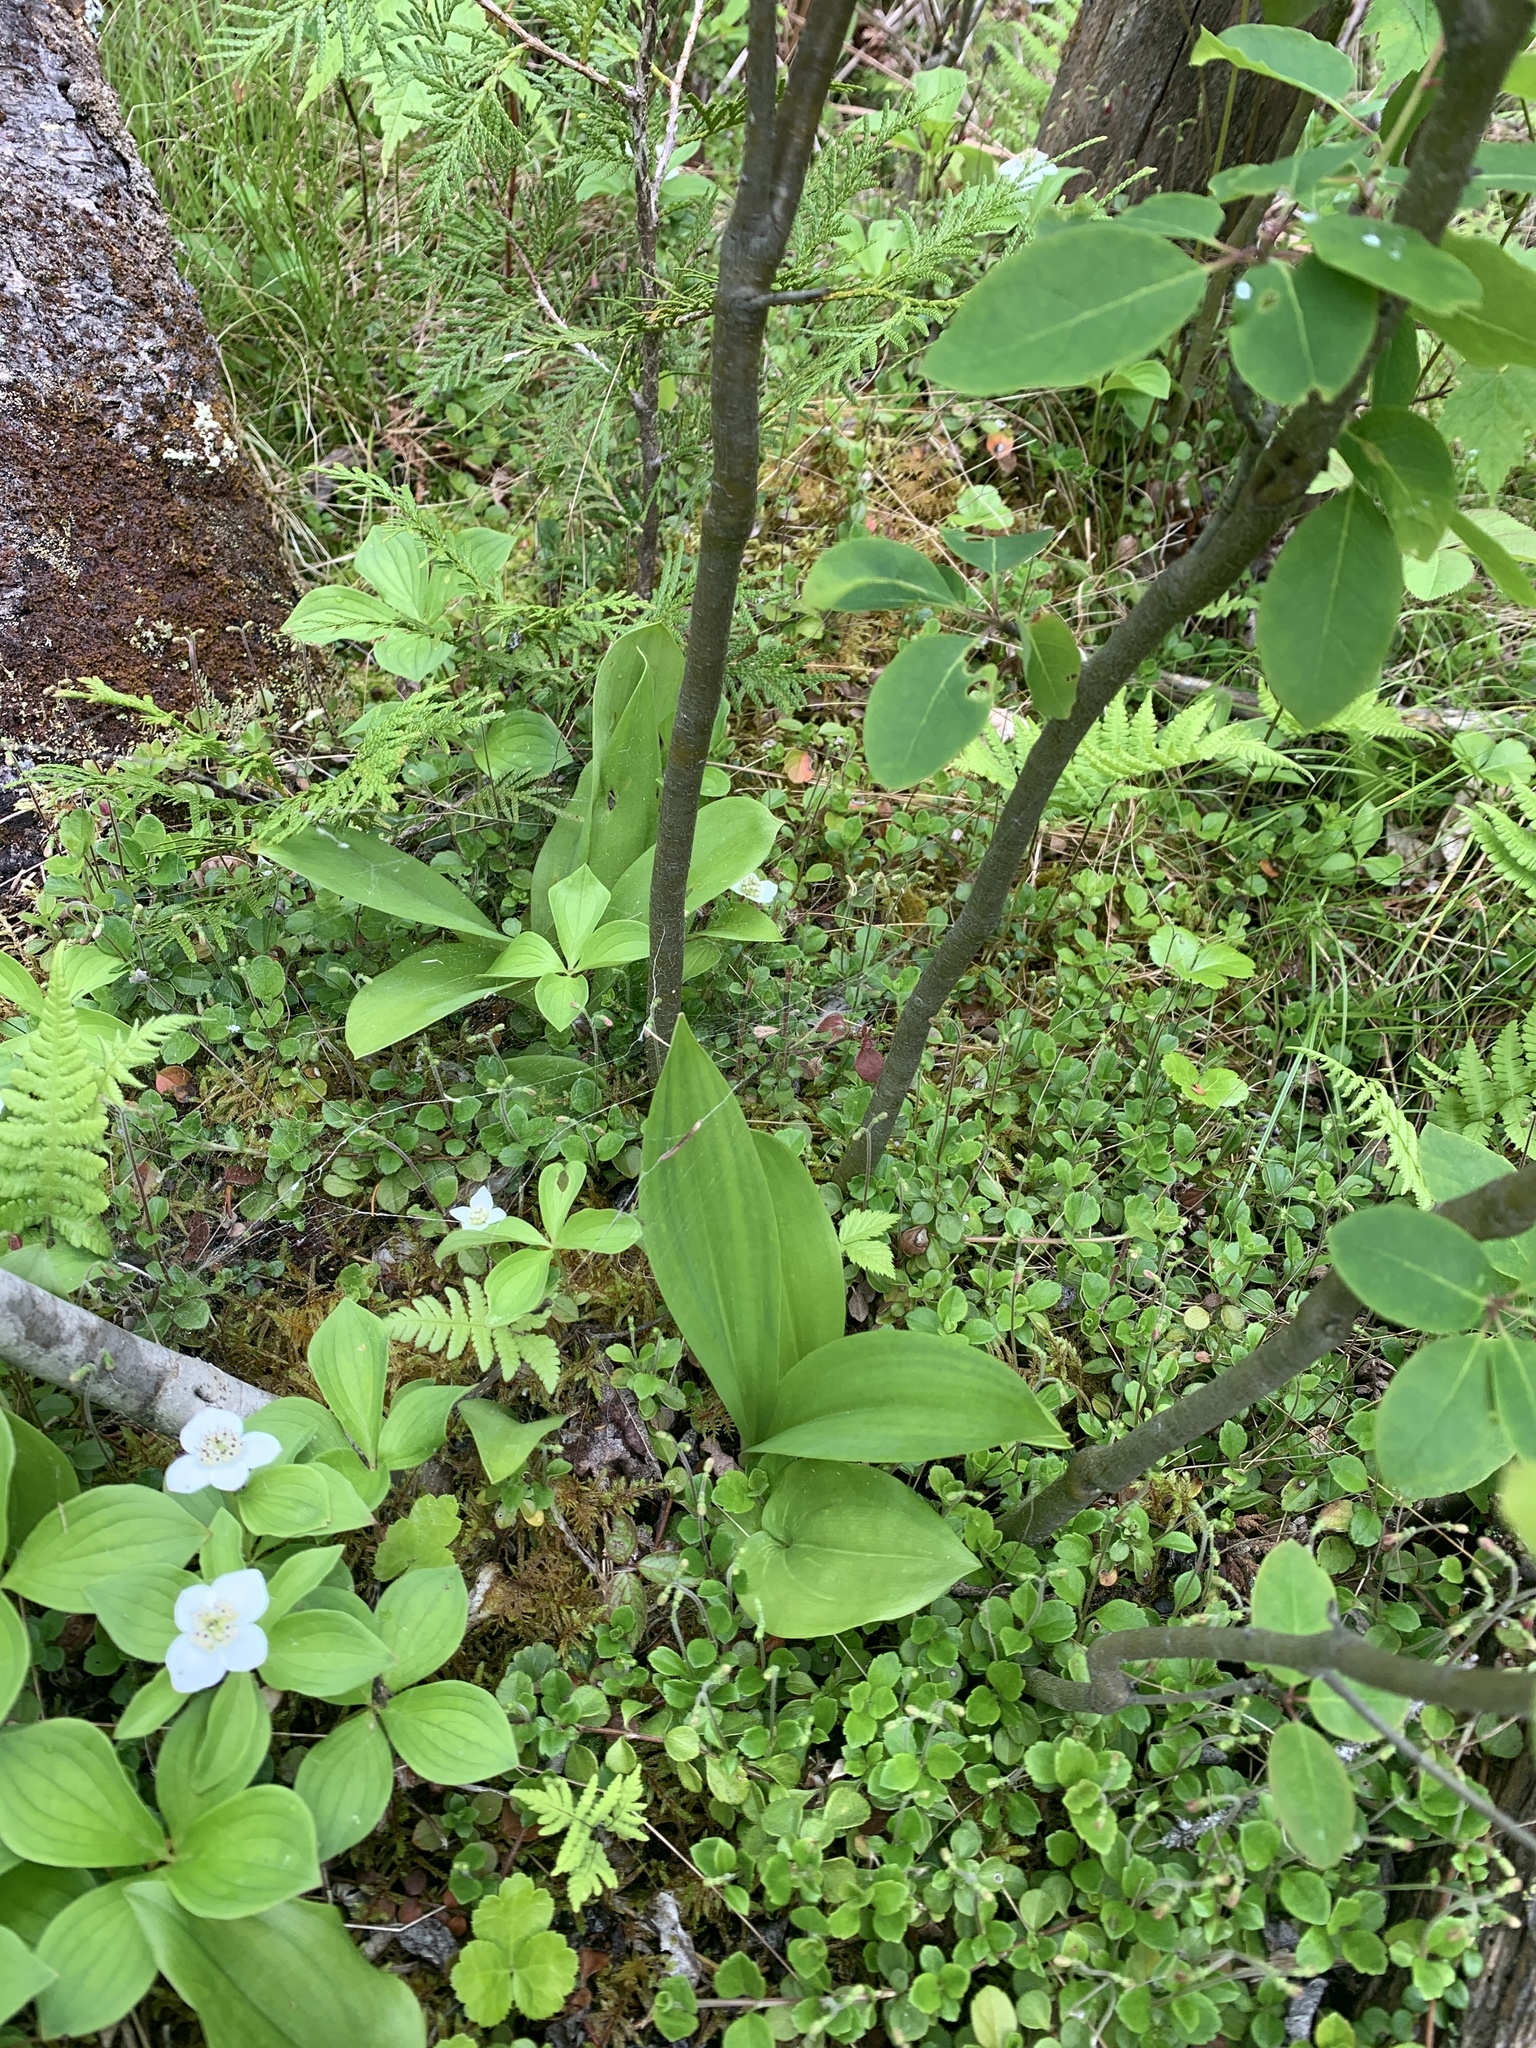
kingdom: Plantae
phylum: Tracheophyta
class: Liliopsida
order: Liliales
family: Liliaceae
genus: Clintonia
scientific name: Clintonia borealis
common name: Yellow clintonia
